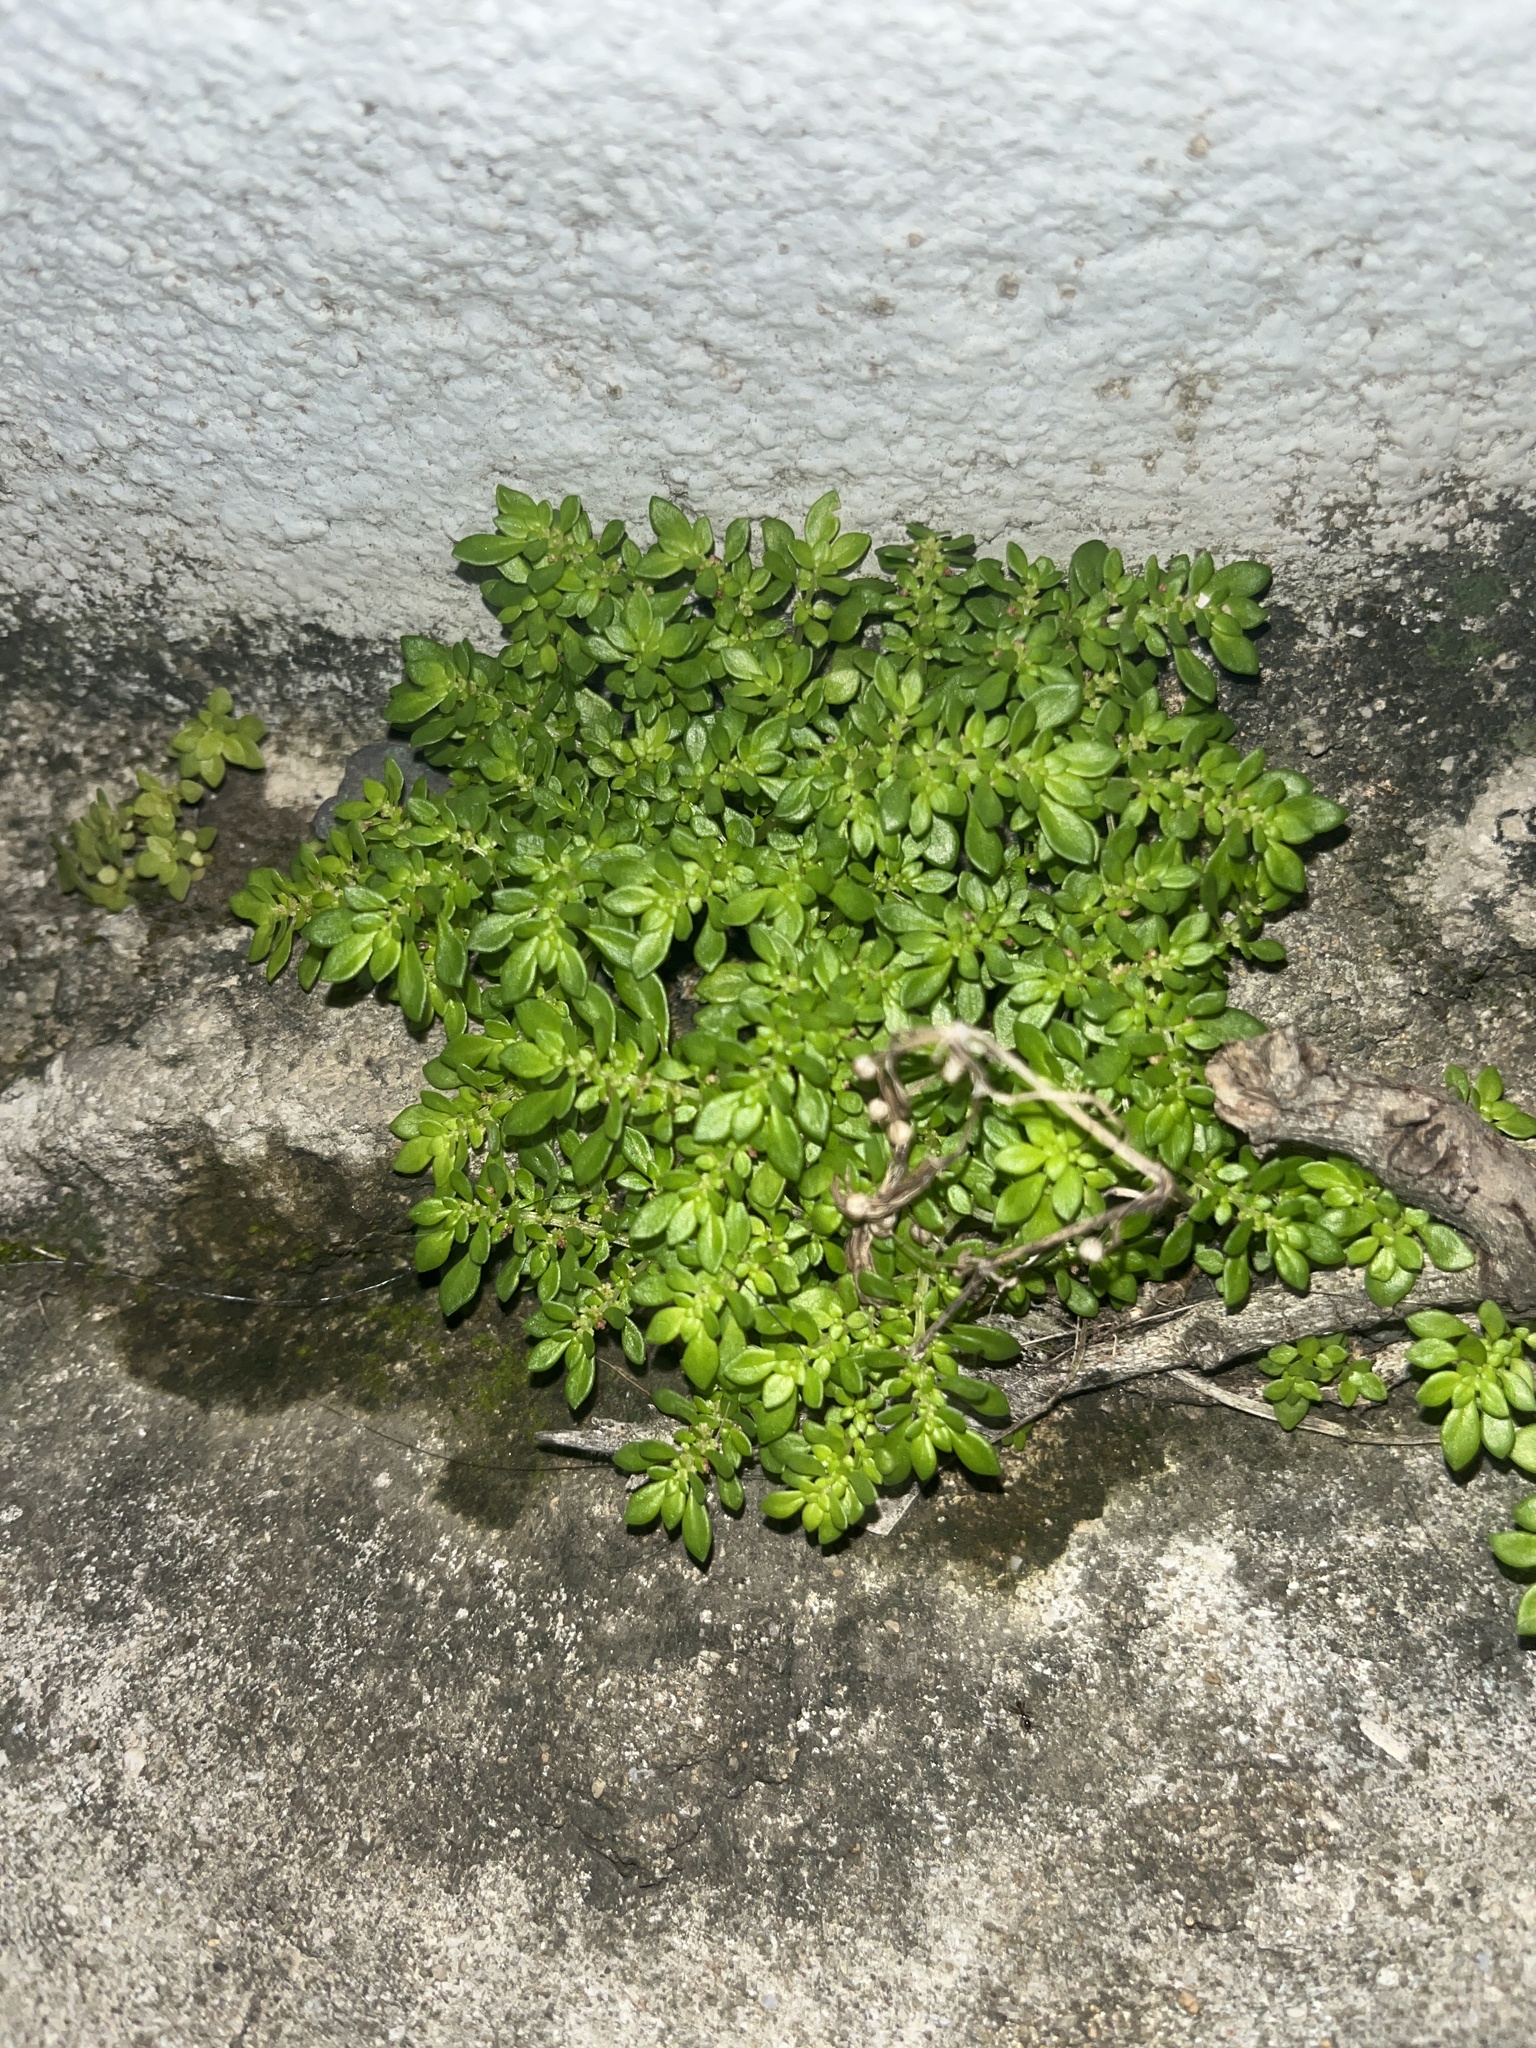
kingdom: Plantae
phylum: Tracheophyta
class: Magnoliopsida
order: Rosales
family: Urticaceae
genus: Pilea
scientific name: Pilea microphylla
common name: Artillery-plant
